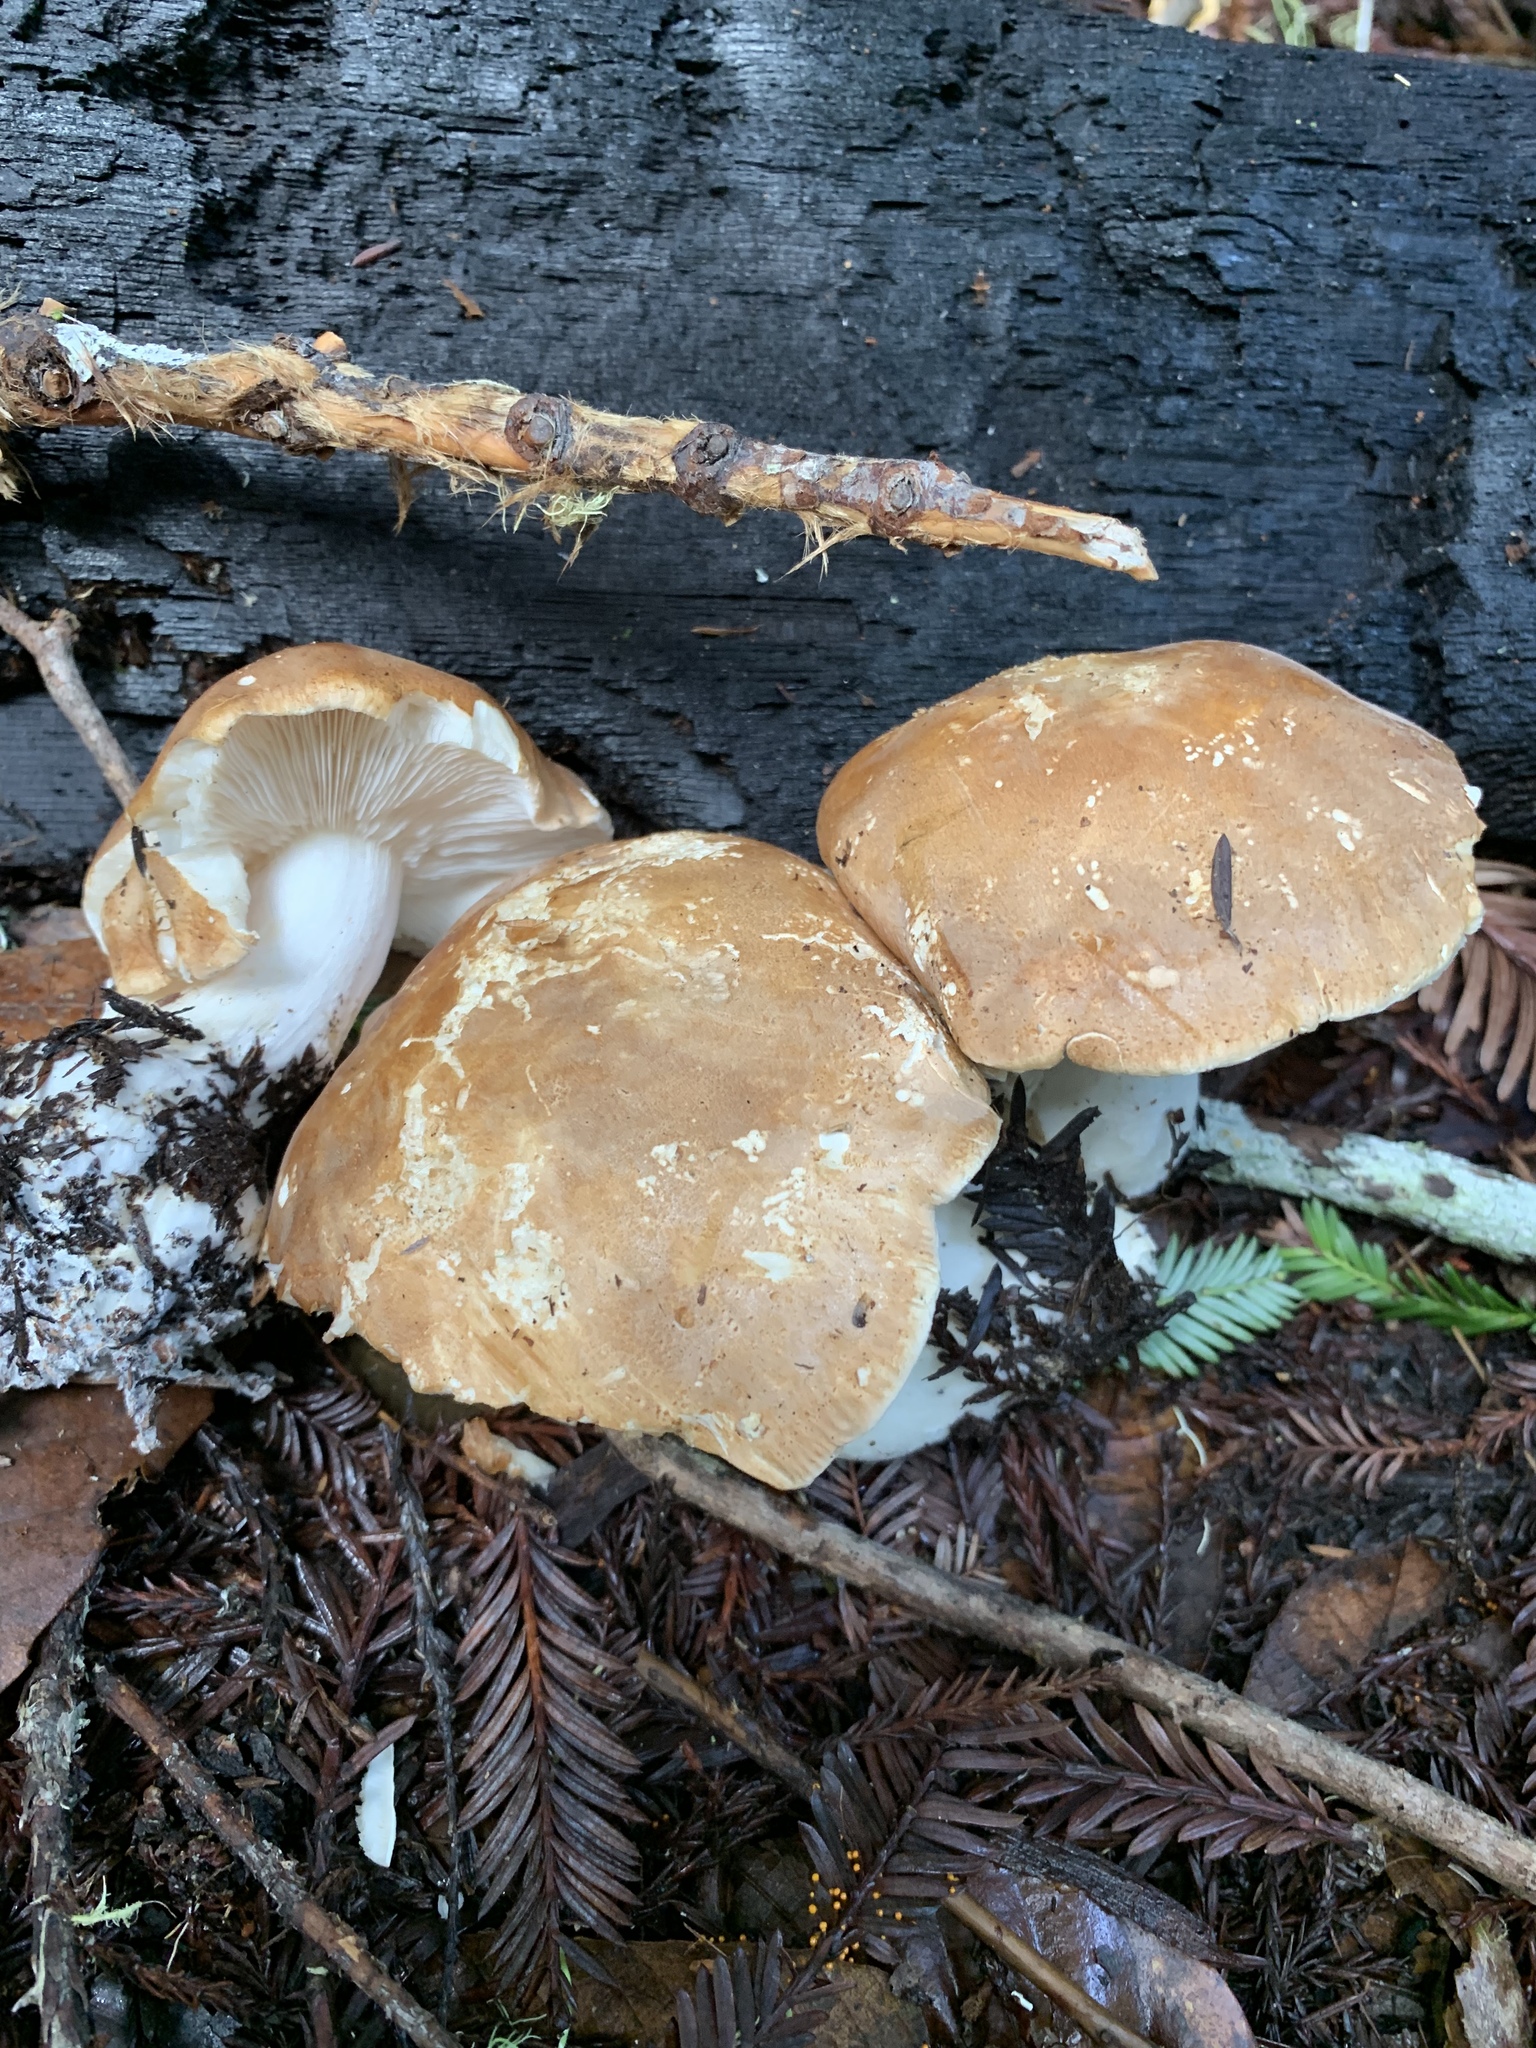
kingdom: Fungi
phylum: Basidiomycota
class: Agaricomycetes
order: Agaricales
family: Tricholomataceae
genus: Leucopaxillus
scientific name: Leucopaxillus gentianeus
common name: Bitter funnel
